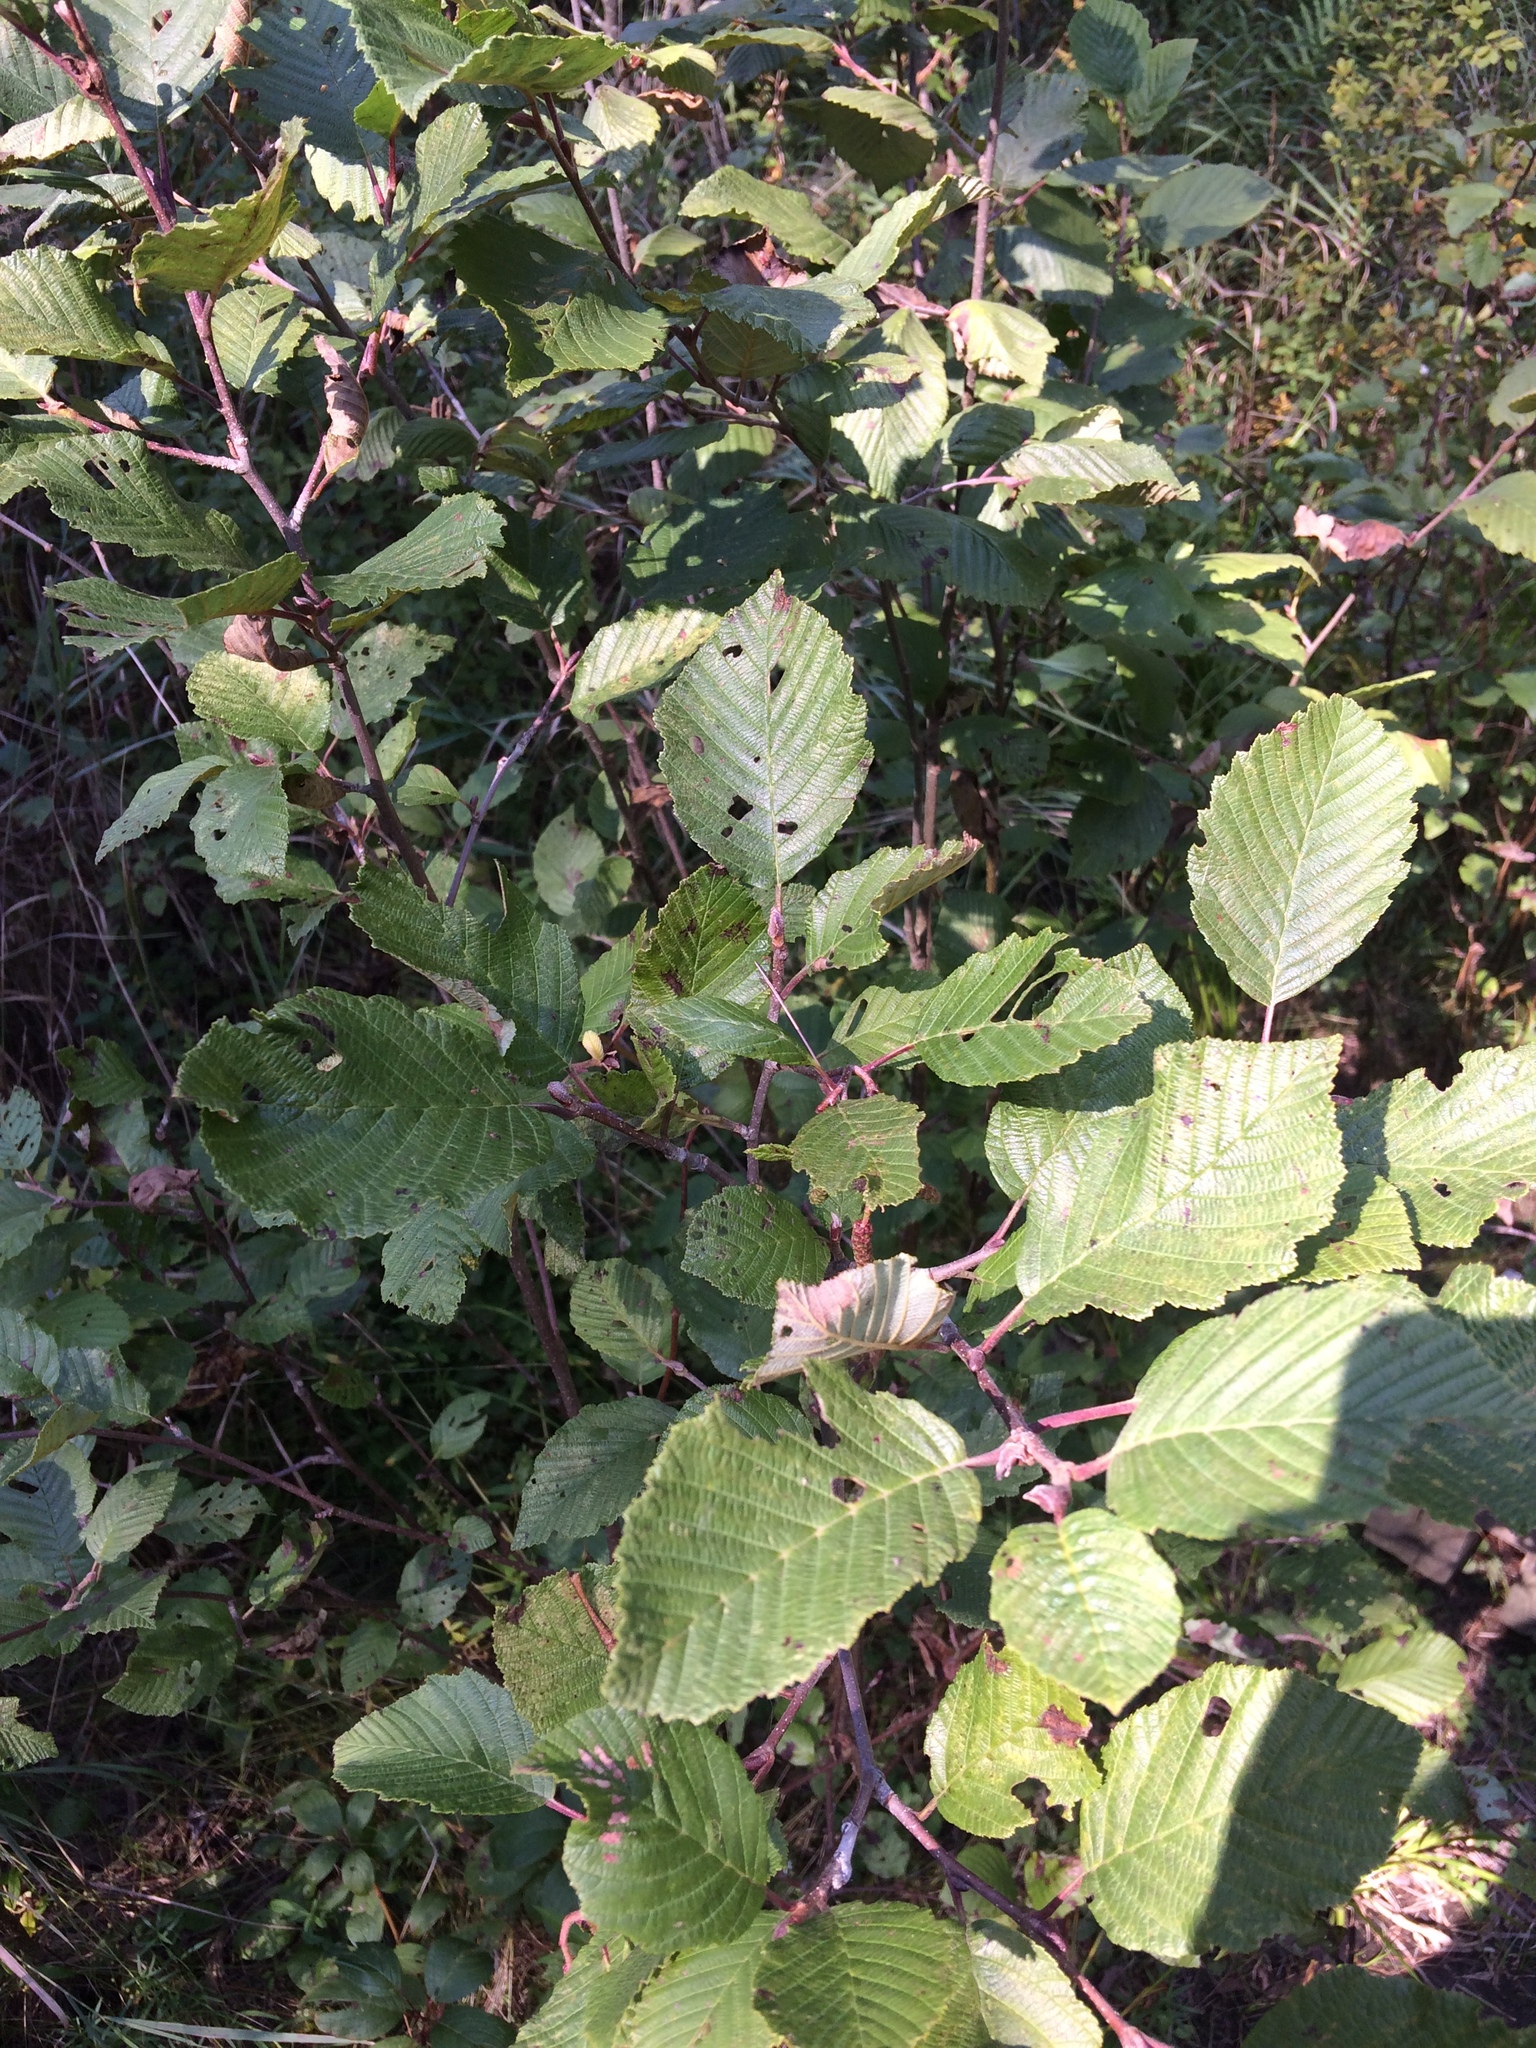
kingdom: Plantae
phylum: Tracheophyta
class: Magnoliopsida
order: Fagales
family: Betulaceae
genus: Alnus
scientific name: Alnus incana
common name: Grey alder
